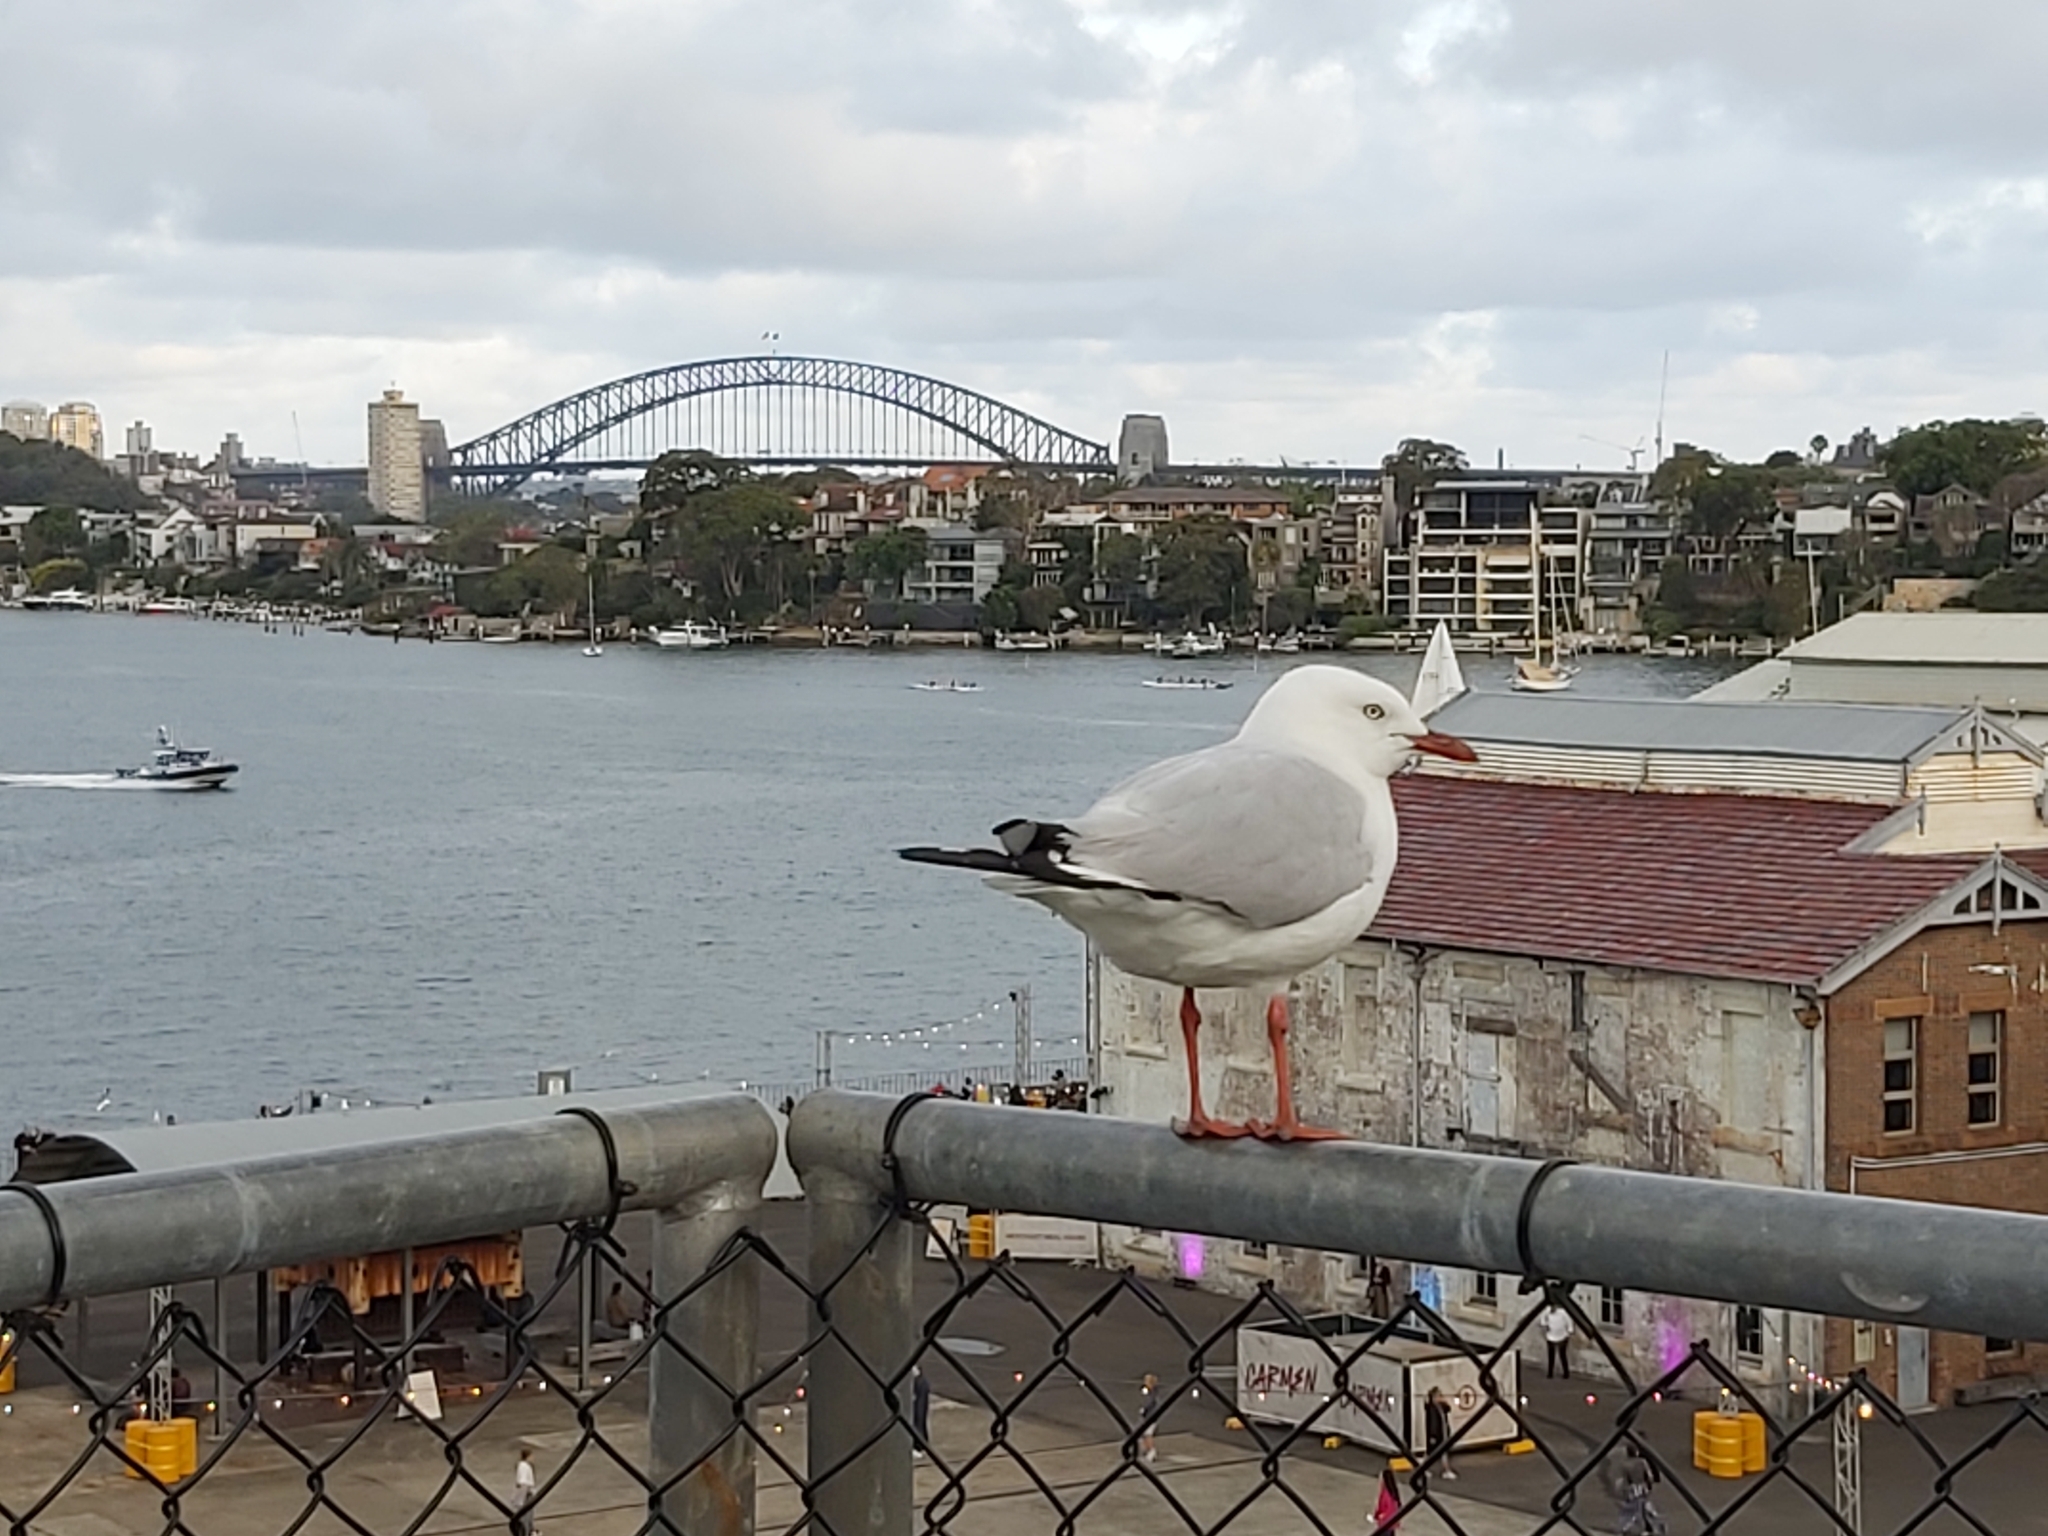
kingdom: Animalia
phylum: Chordata
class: Aves
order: Charadriiformes
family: Laridae
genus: Chroicocephalus
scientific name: Chroicocephalus novaehollandiae
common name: Silver gull
